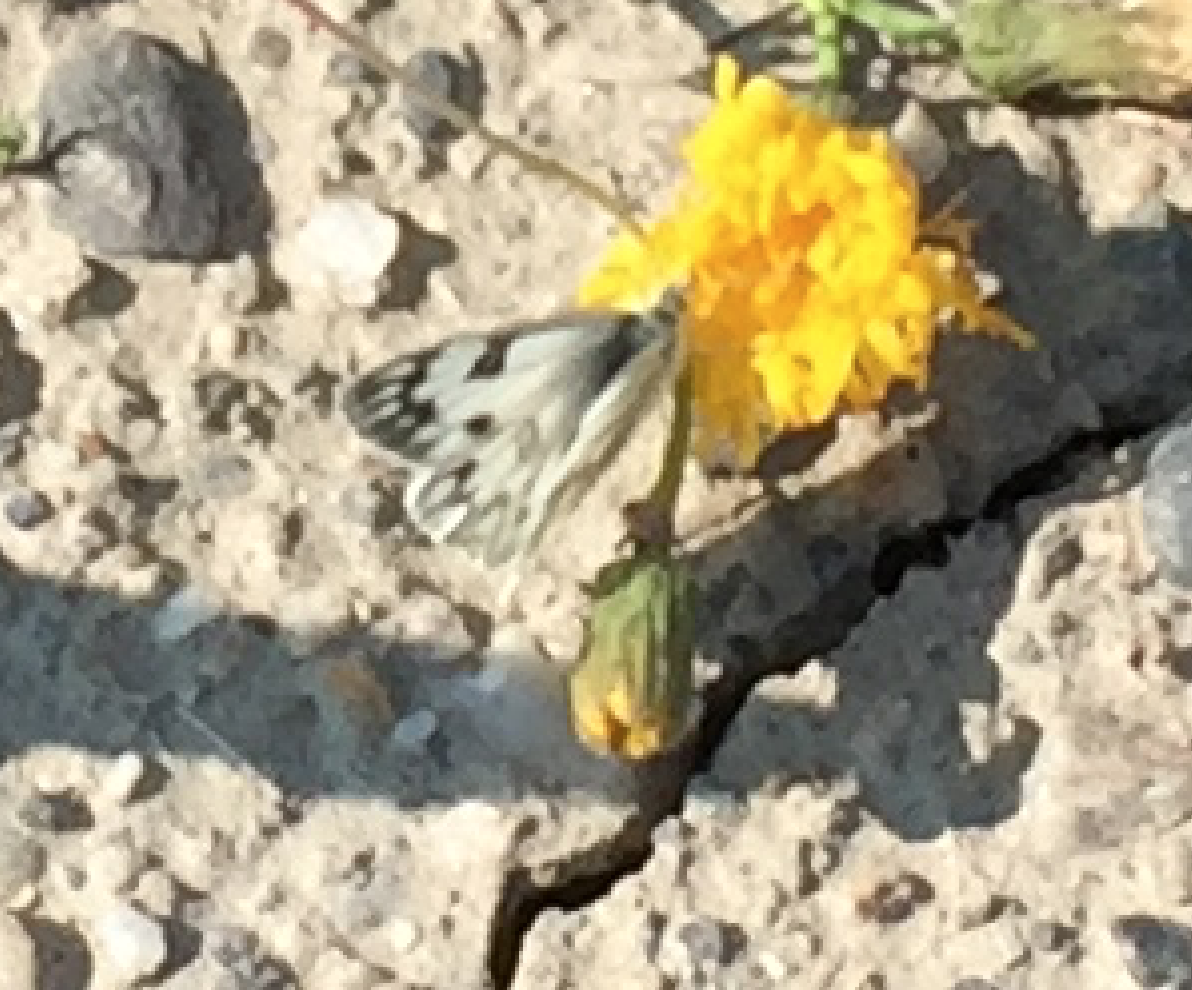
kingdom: Animalia
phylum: Arthropoda
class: Insecta
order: Lepidoptera
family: Pieridae
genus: Pontia
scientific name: Pontia occidentalis
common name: Western white
